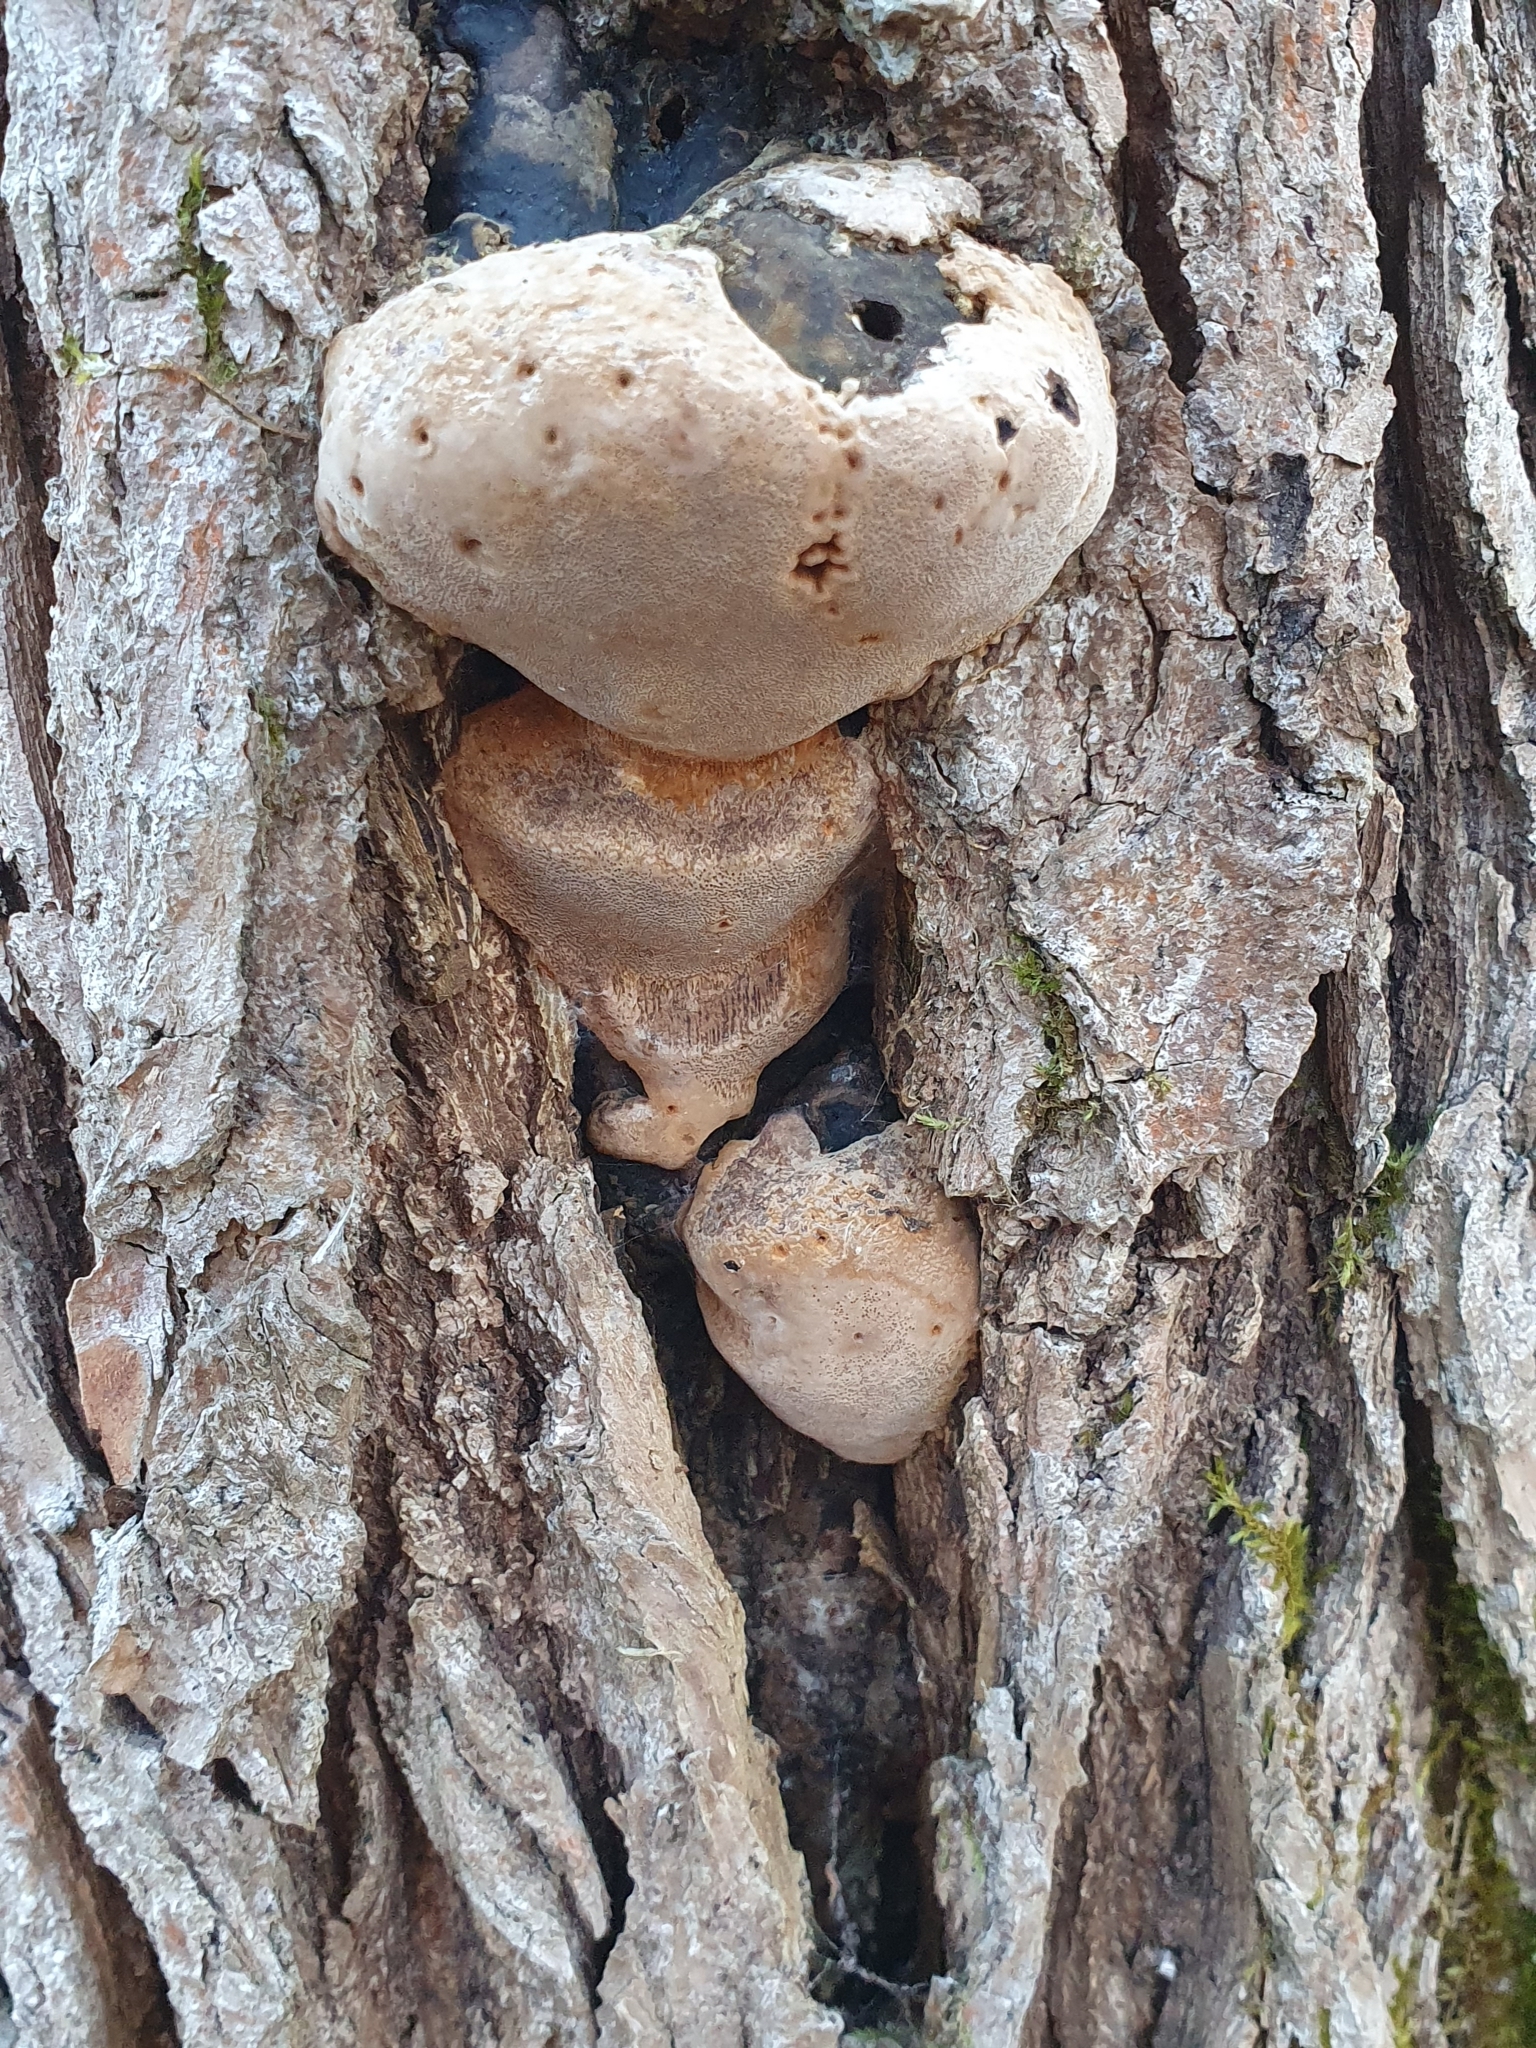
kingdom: Fungi
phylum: Basidiomycota
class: Agaricomycetes
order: Hymenochaetales
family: Hymenochaetaceae
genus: Phellinus
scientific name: Phellinus igniarius
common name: Willow bracket
